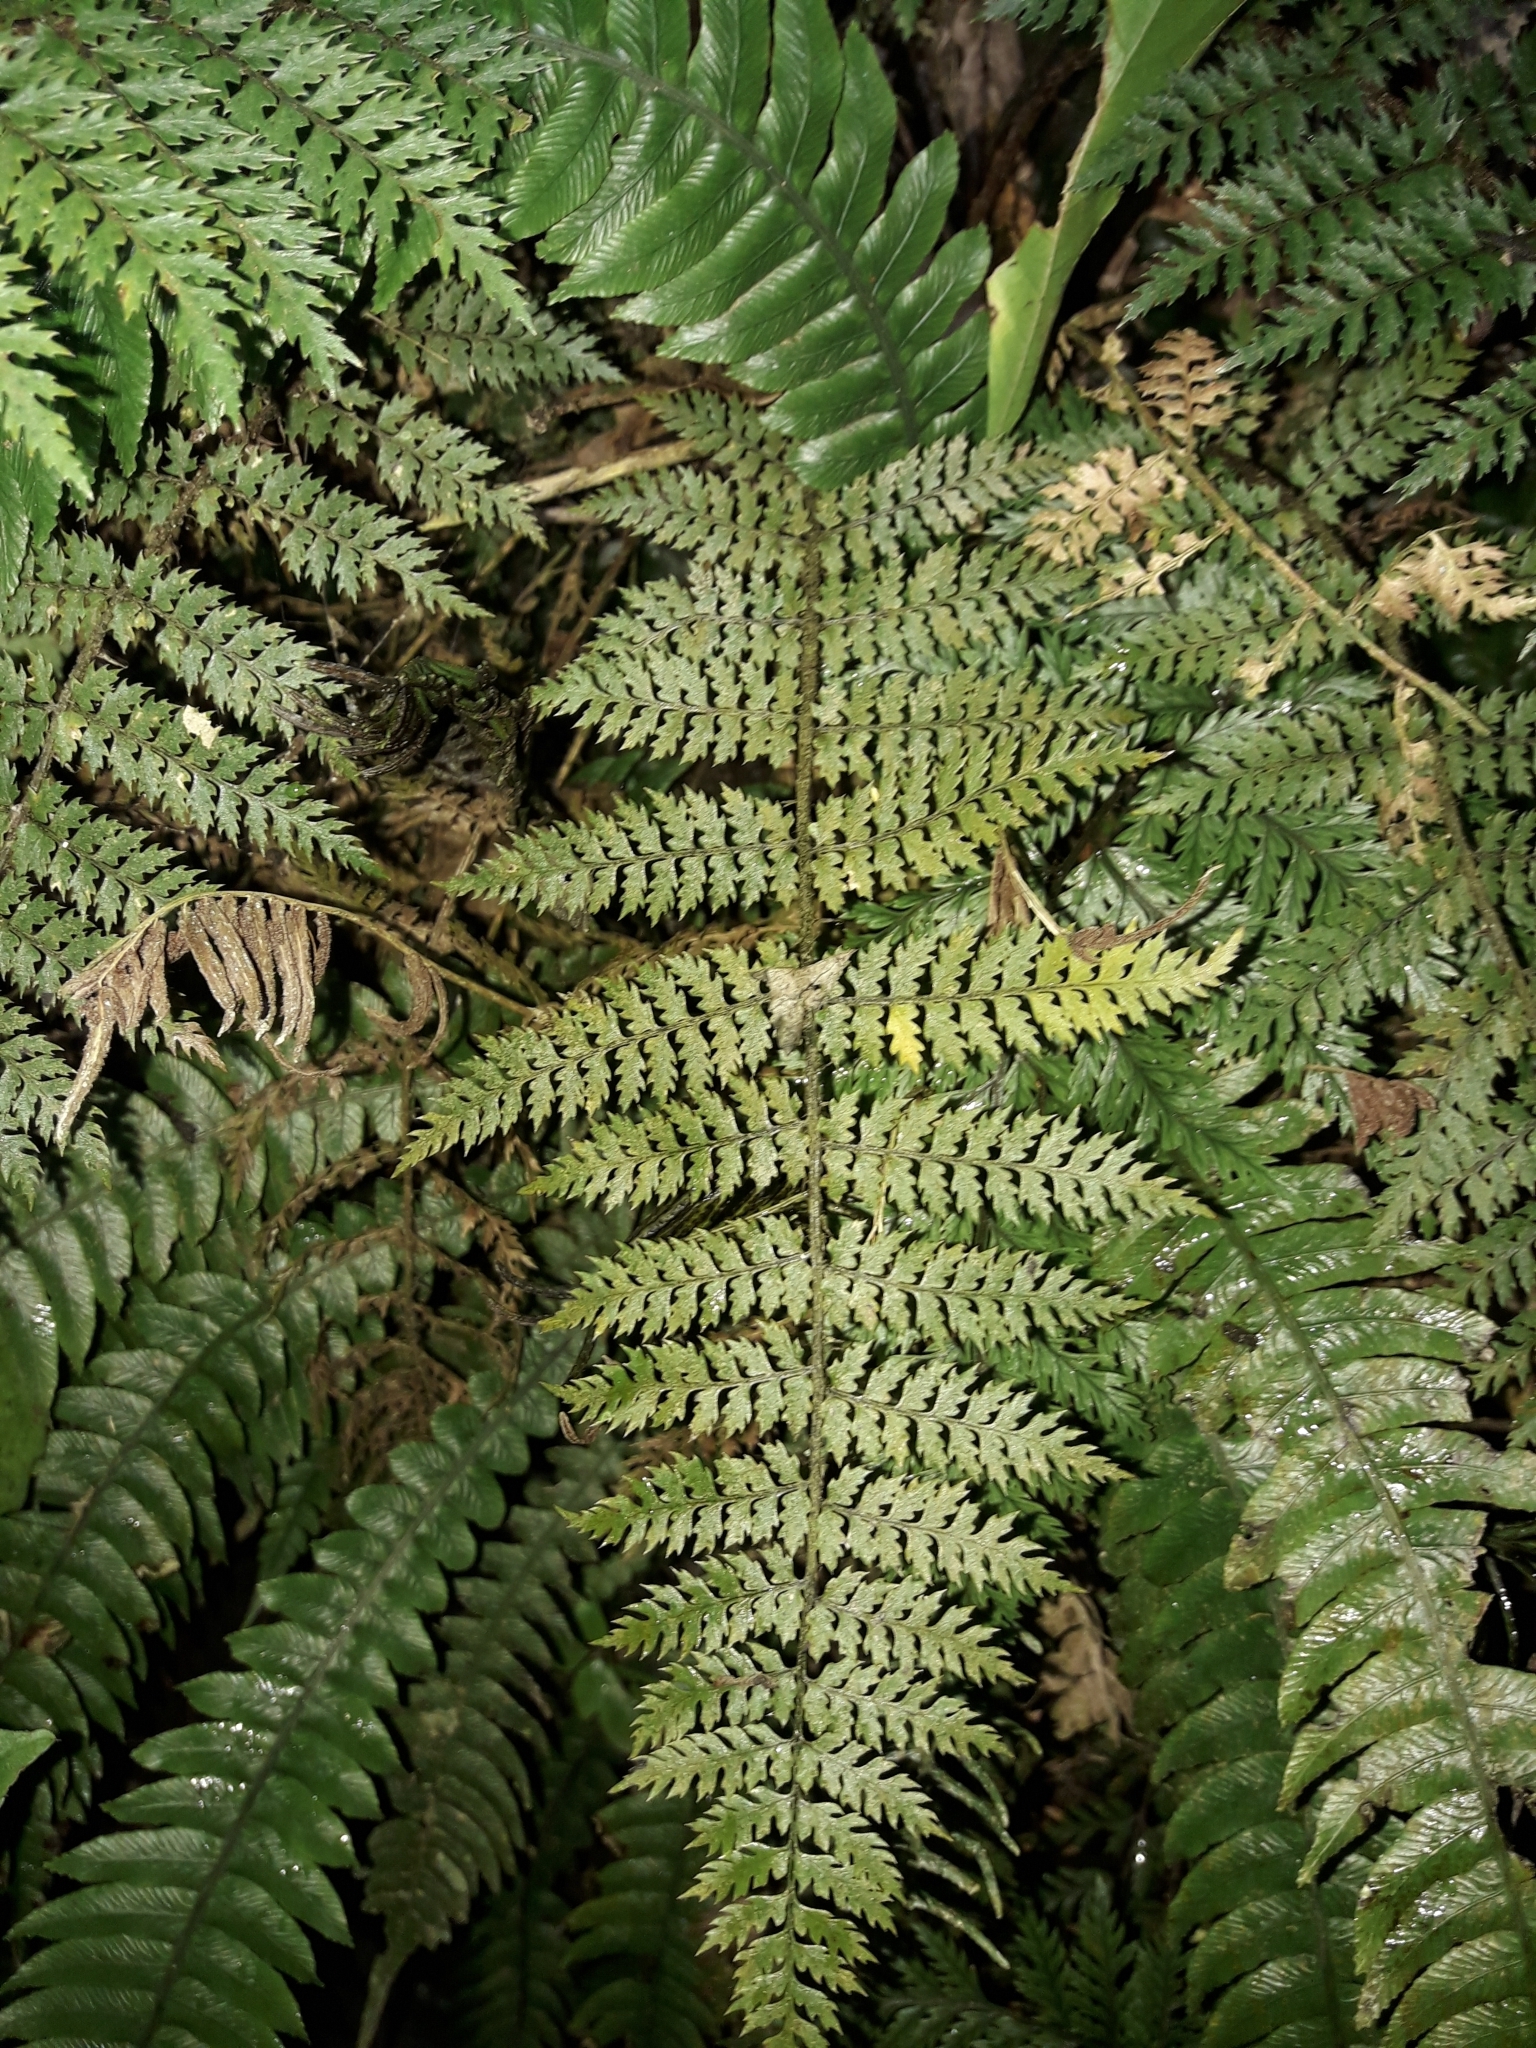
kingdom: Plantae
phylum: Tracheophyta
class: Polypodiopsida
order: Polypodiales
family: Dryopteridaceae
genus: Polystichum
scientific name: Polystichum silvaticum
